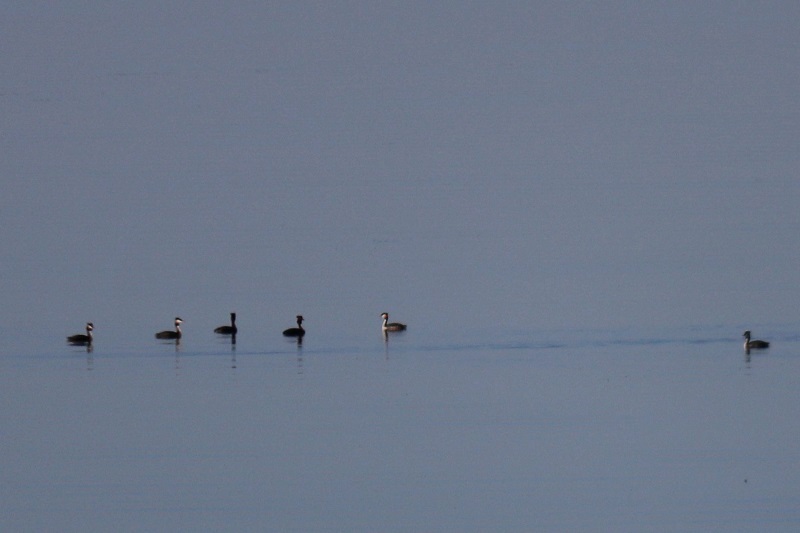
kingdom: Animalia
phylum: Chordata
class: Aves
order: Podicipediformes
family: Podicipedidae
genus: Podiceps
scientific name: Podiceps cristatus
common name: Great crested grebe
